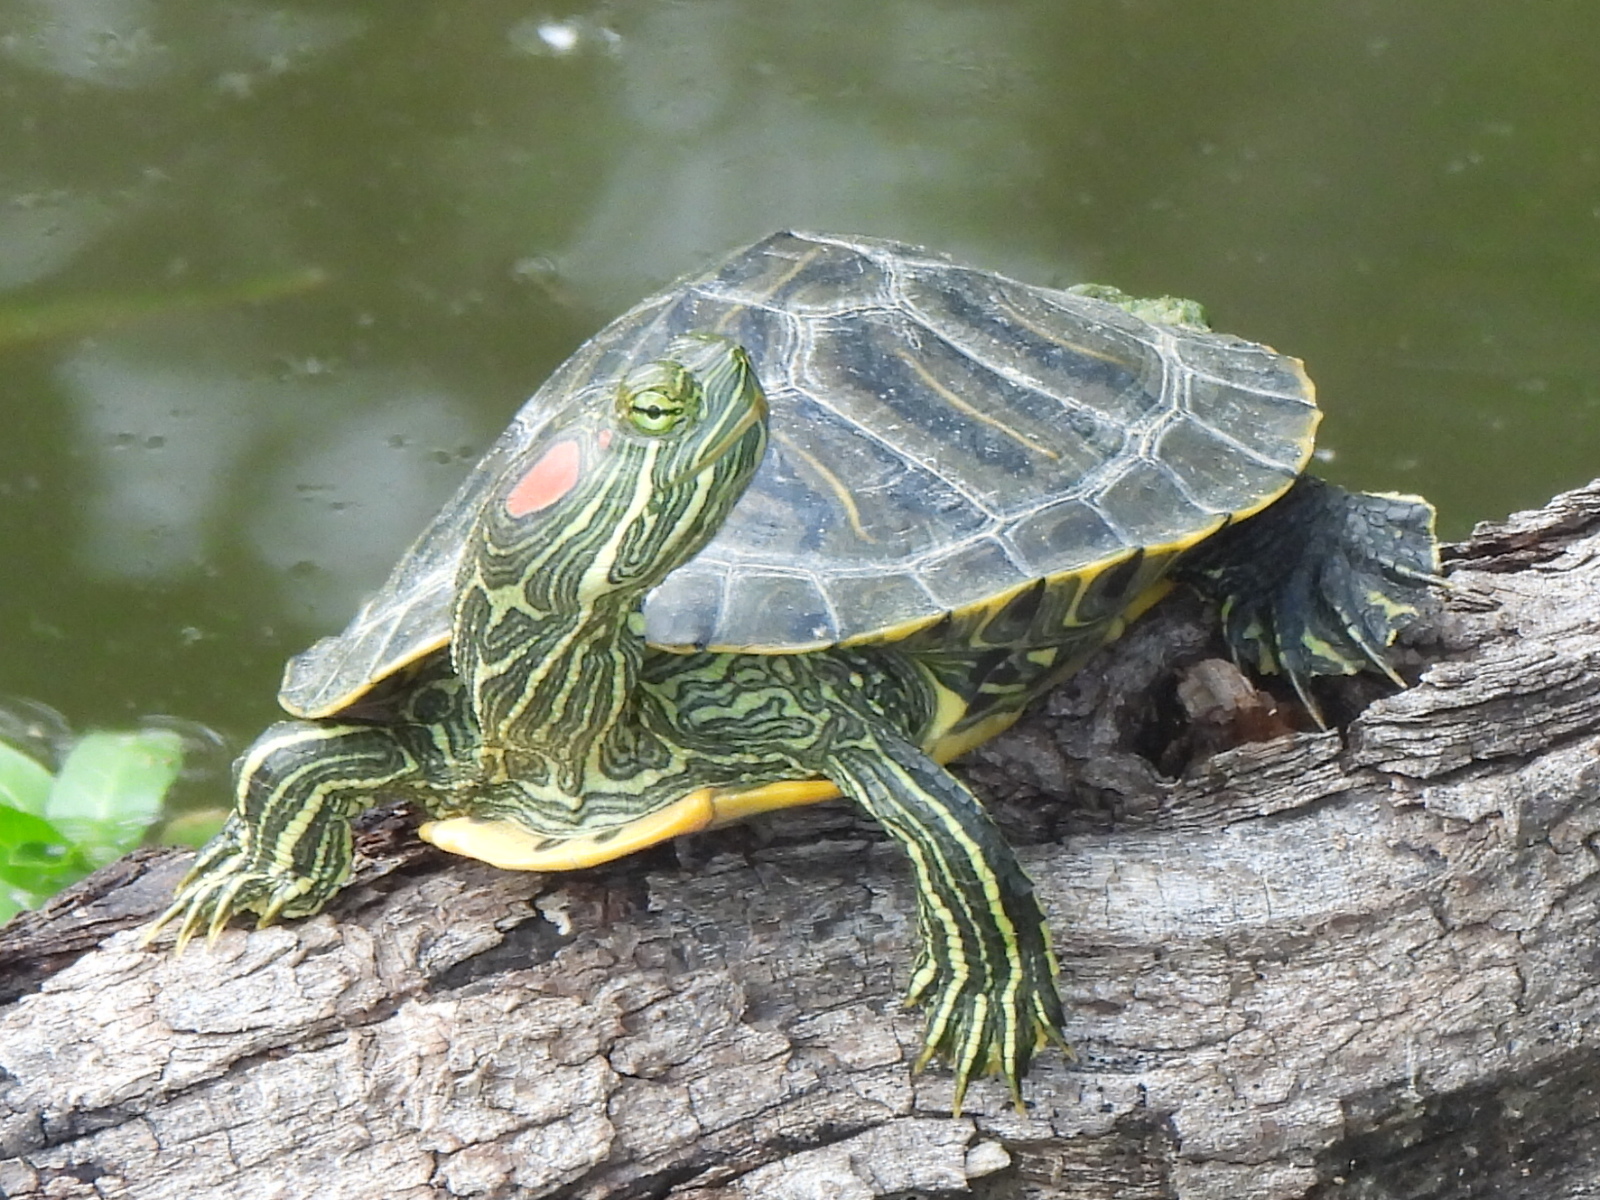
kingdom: Animalia
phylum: Chordata
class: Testudines
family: Emydidae
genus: Trachemys
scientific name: Trachemys scripta
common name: Slider
